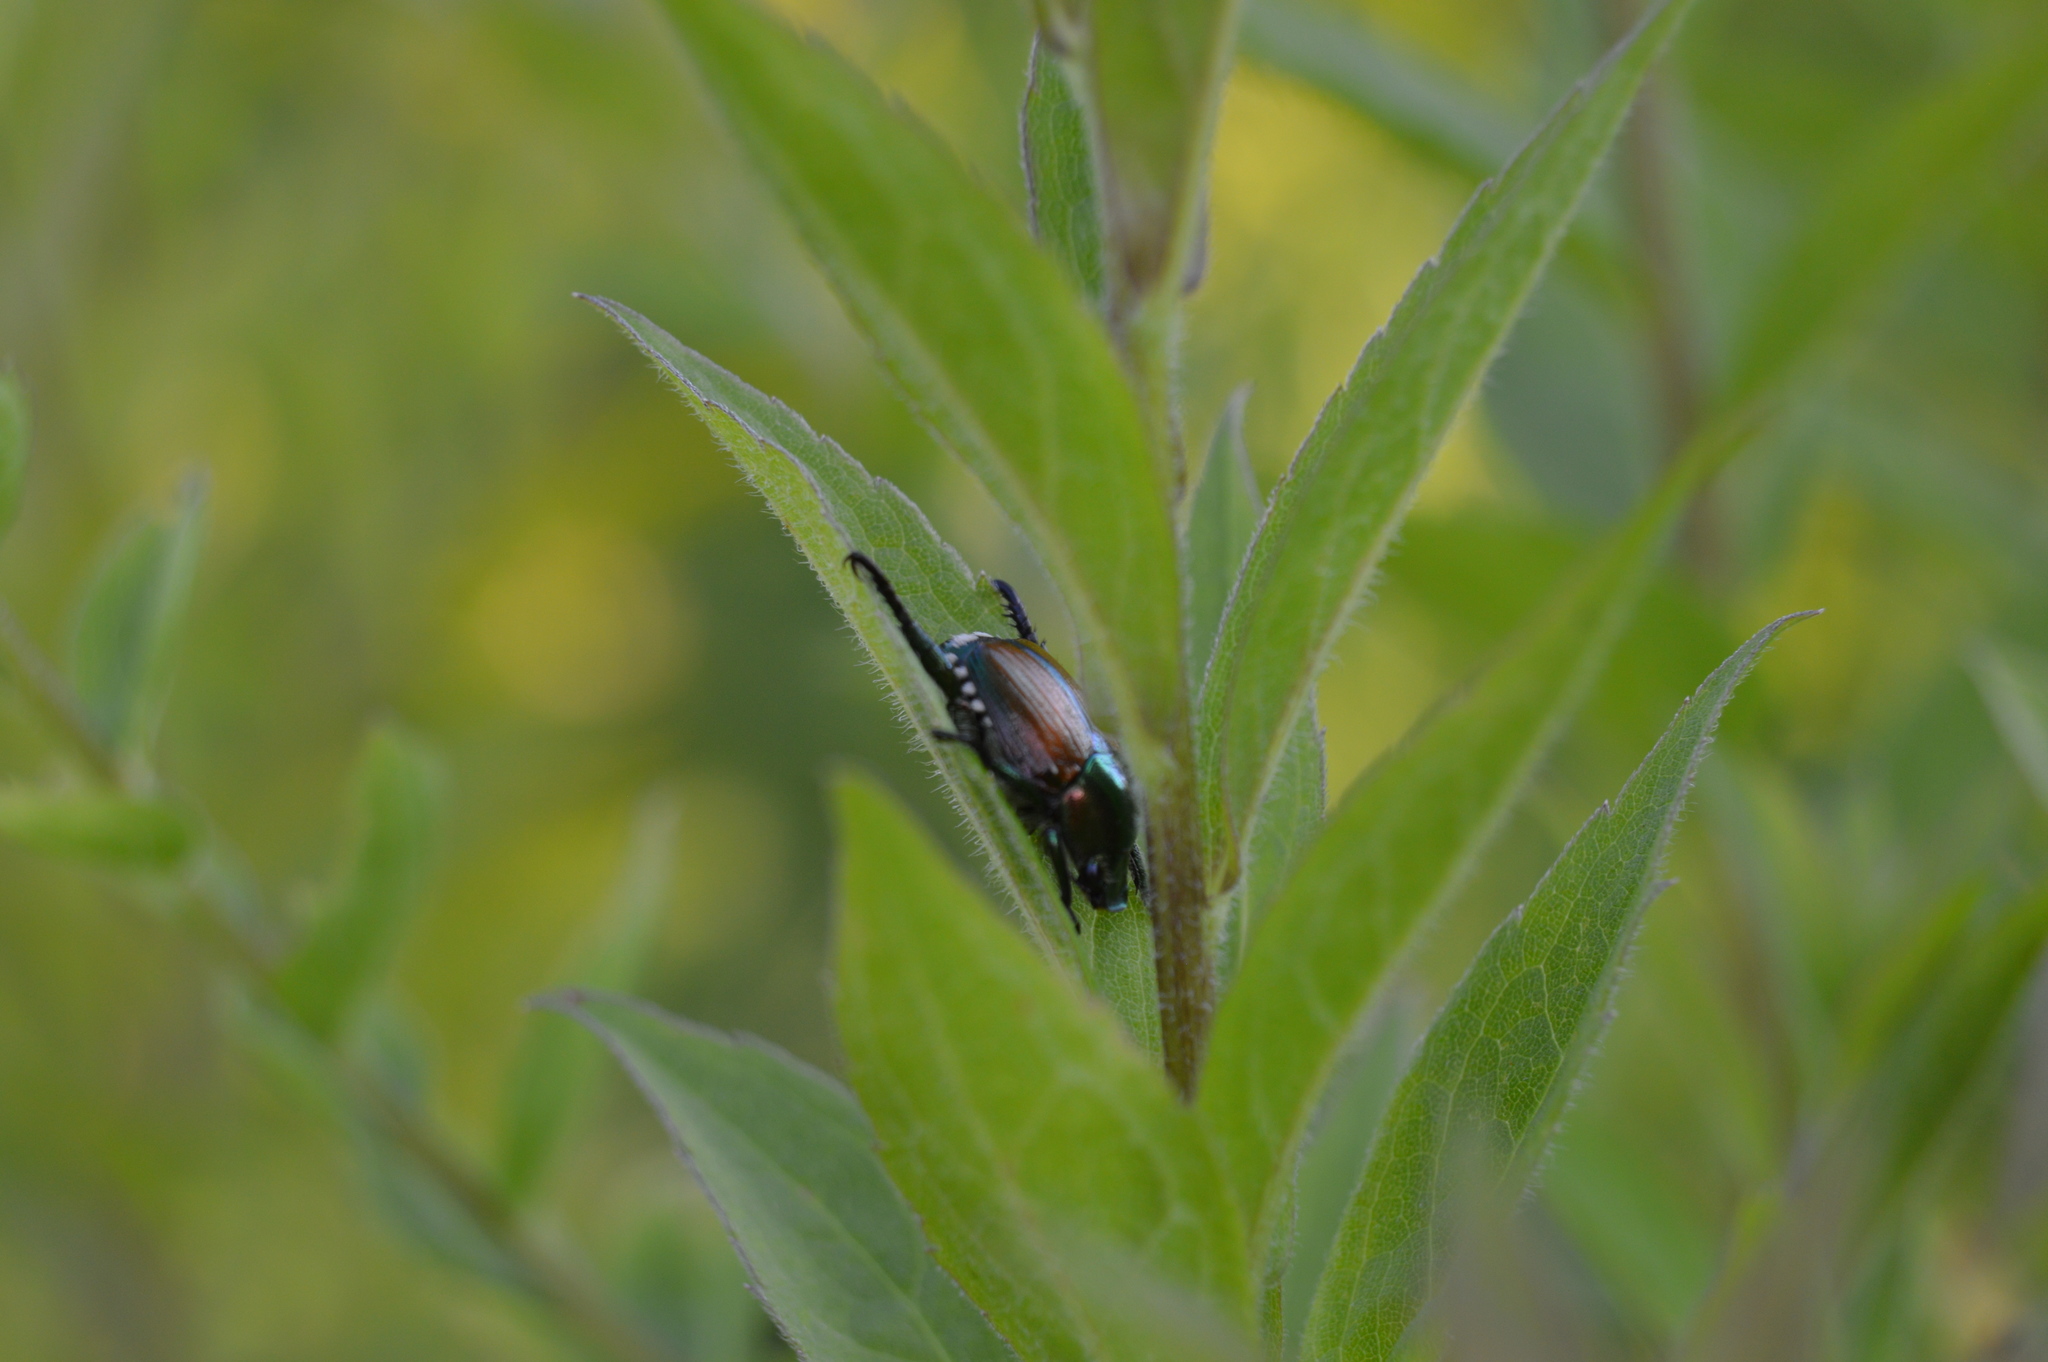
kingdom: Animalia
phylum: Arthropoda
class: Insecta
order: Coleoptera
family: Scarabaeidae
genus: Popillia
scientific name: Popillia japonica
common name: Japanese beetle
